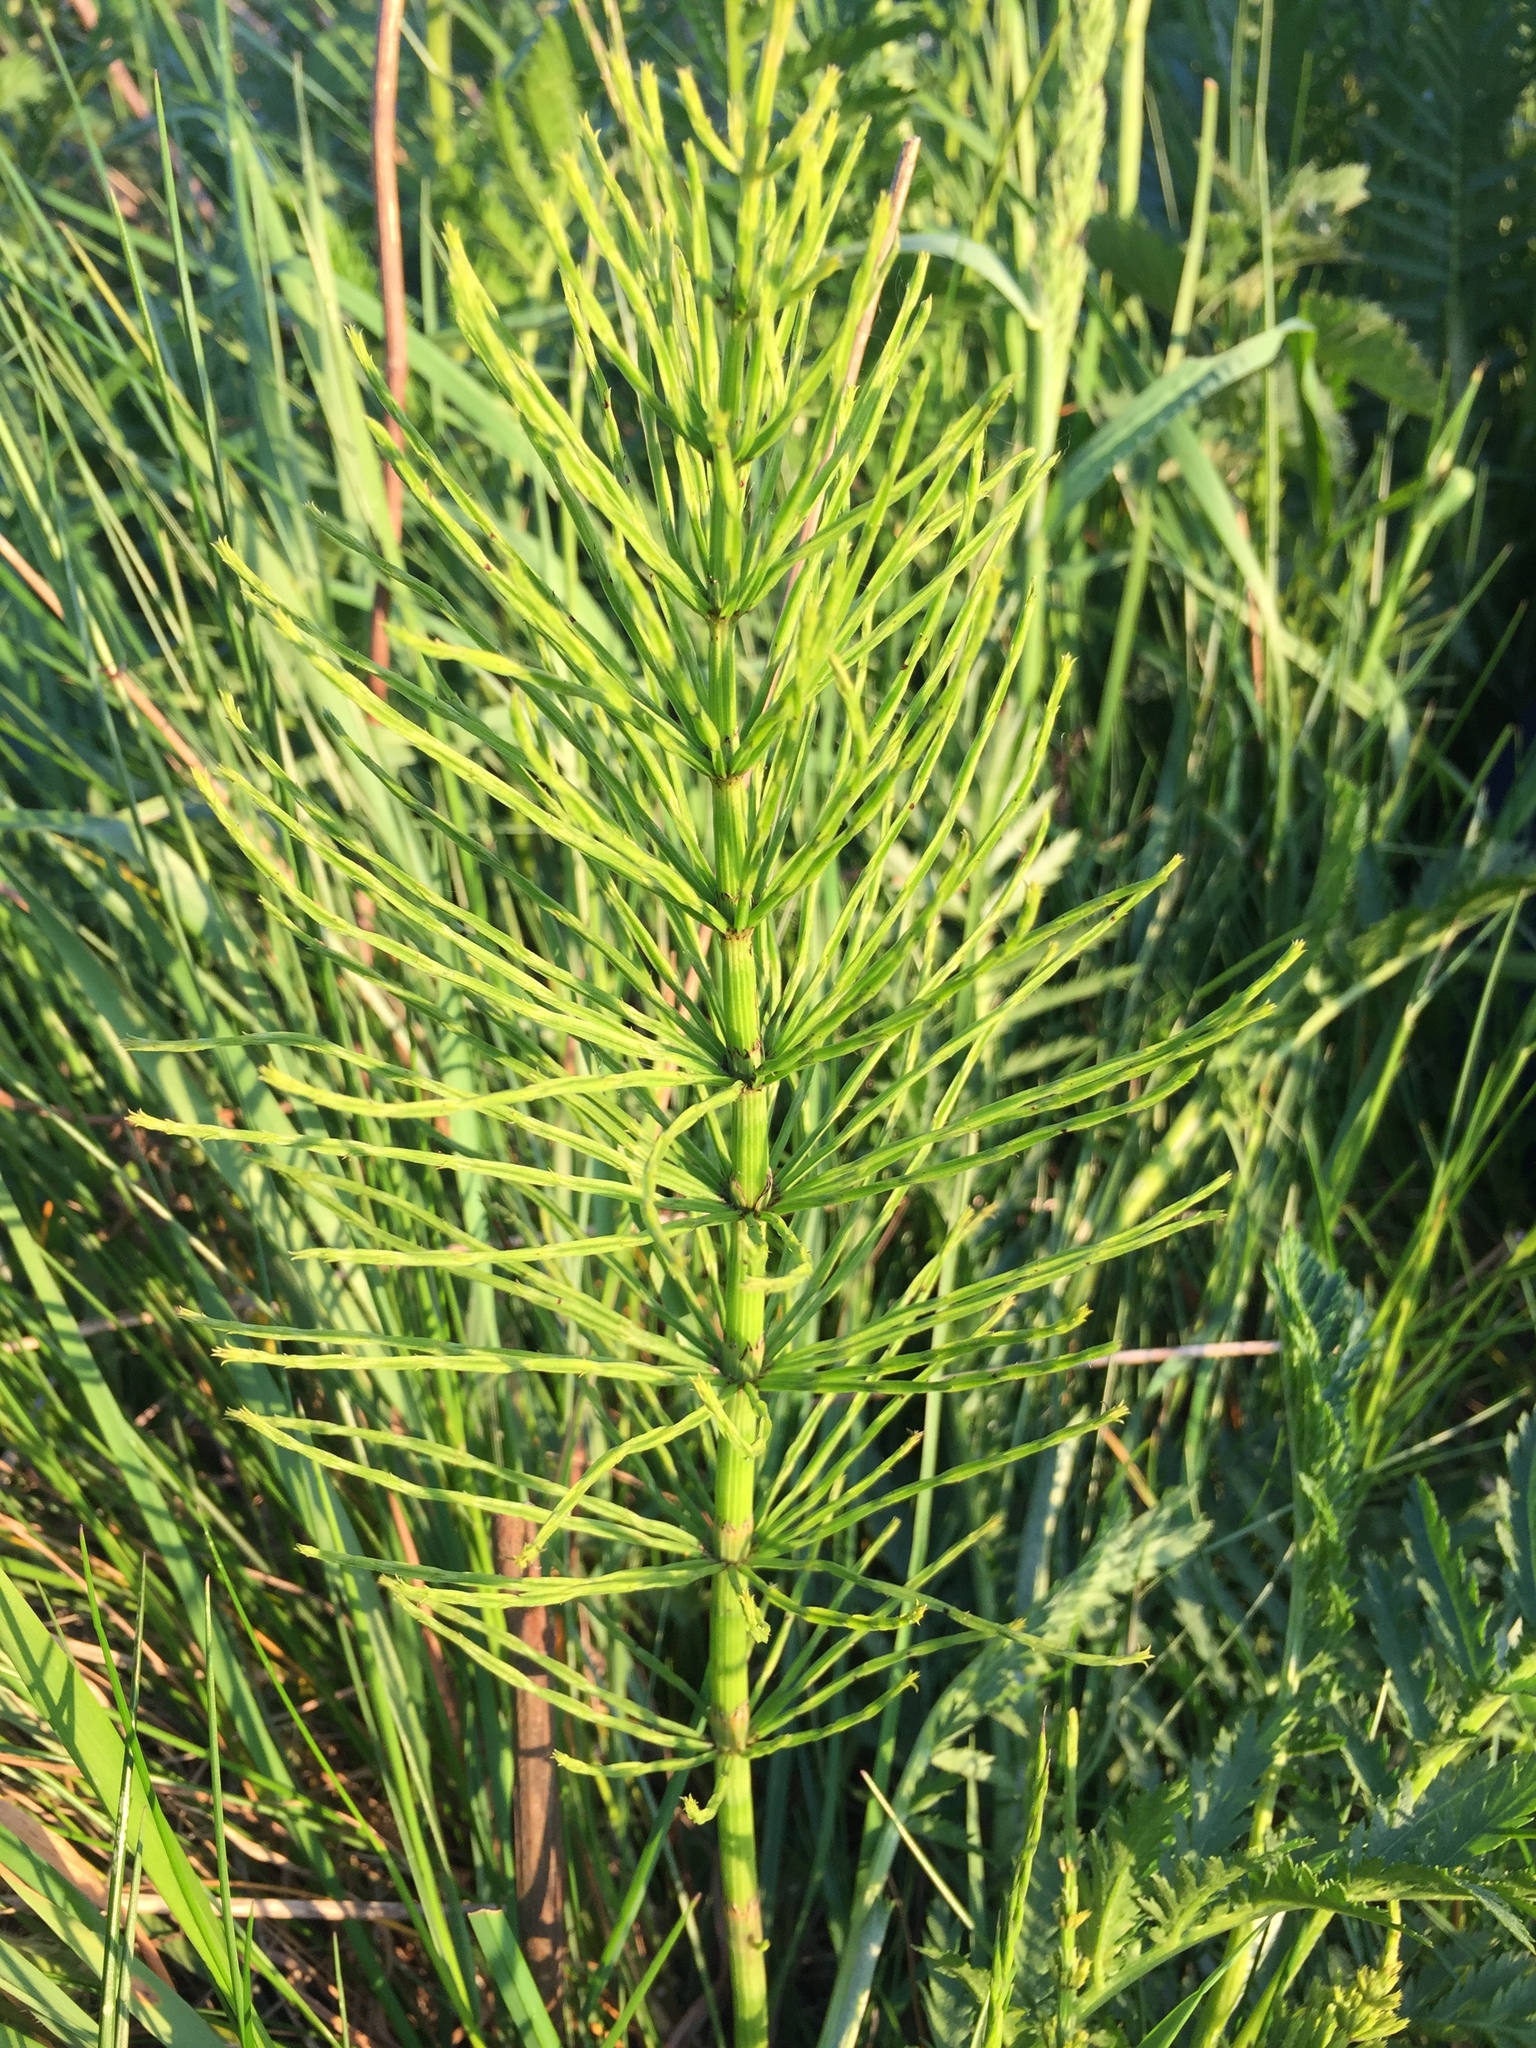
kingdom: Plantae
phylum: Tracheophyta
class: Polypodiopsida
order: Equisetales
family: Equisetaceae
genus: Equisetum
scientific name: Equisetum arvense
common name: Field horsetail
